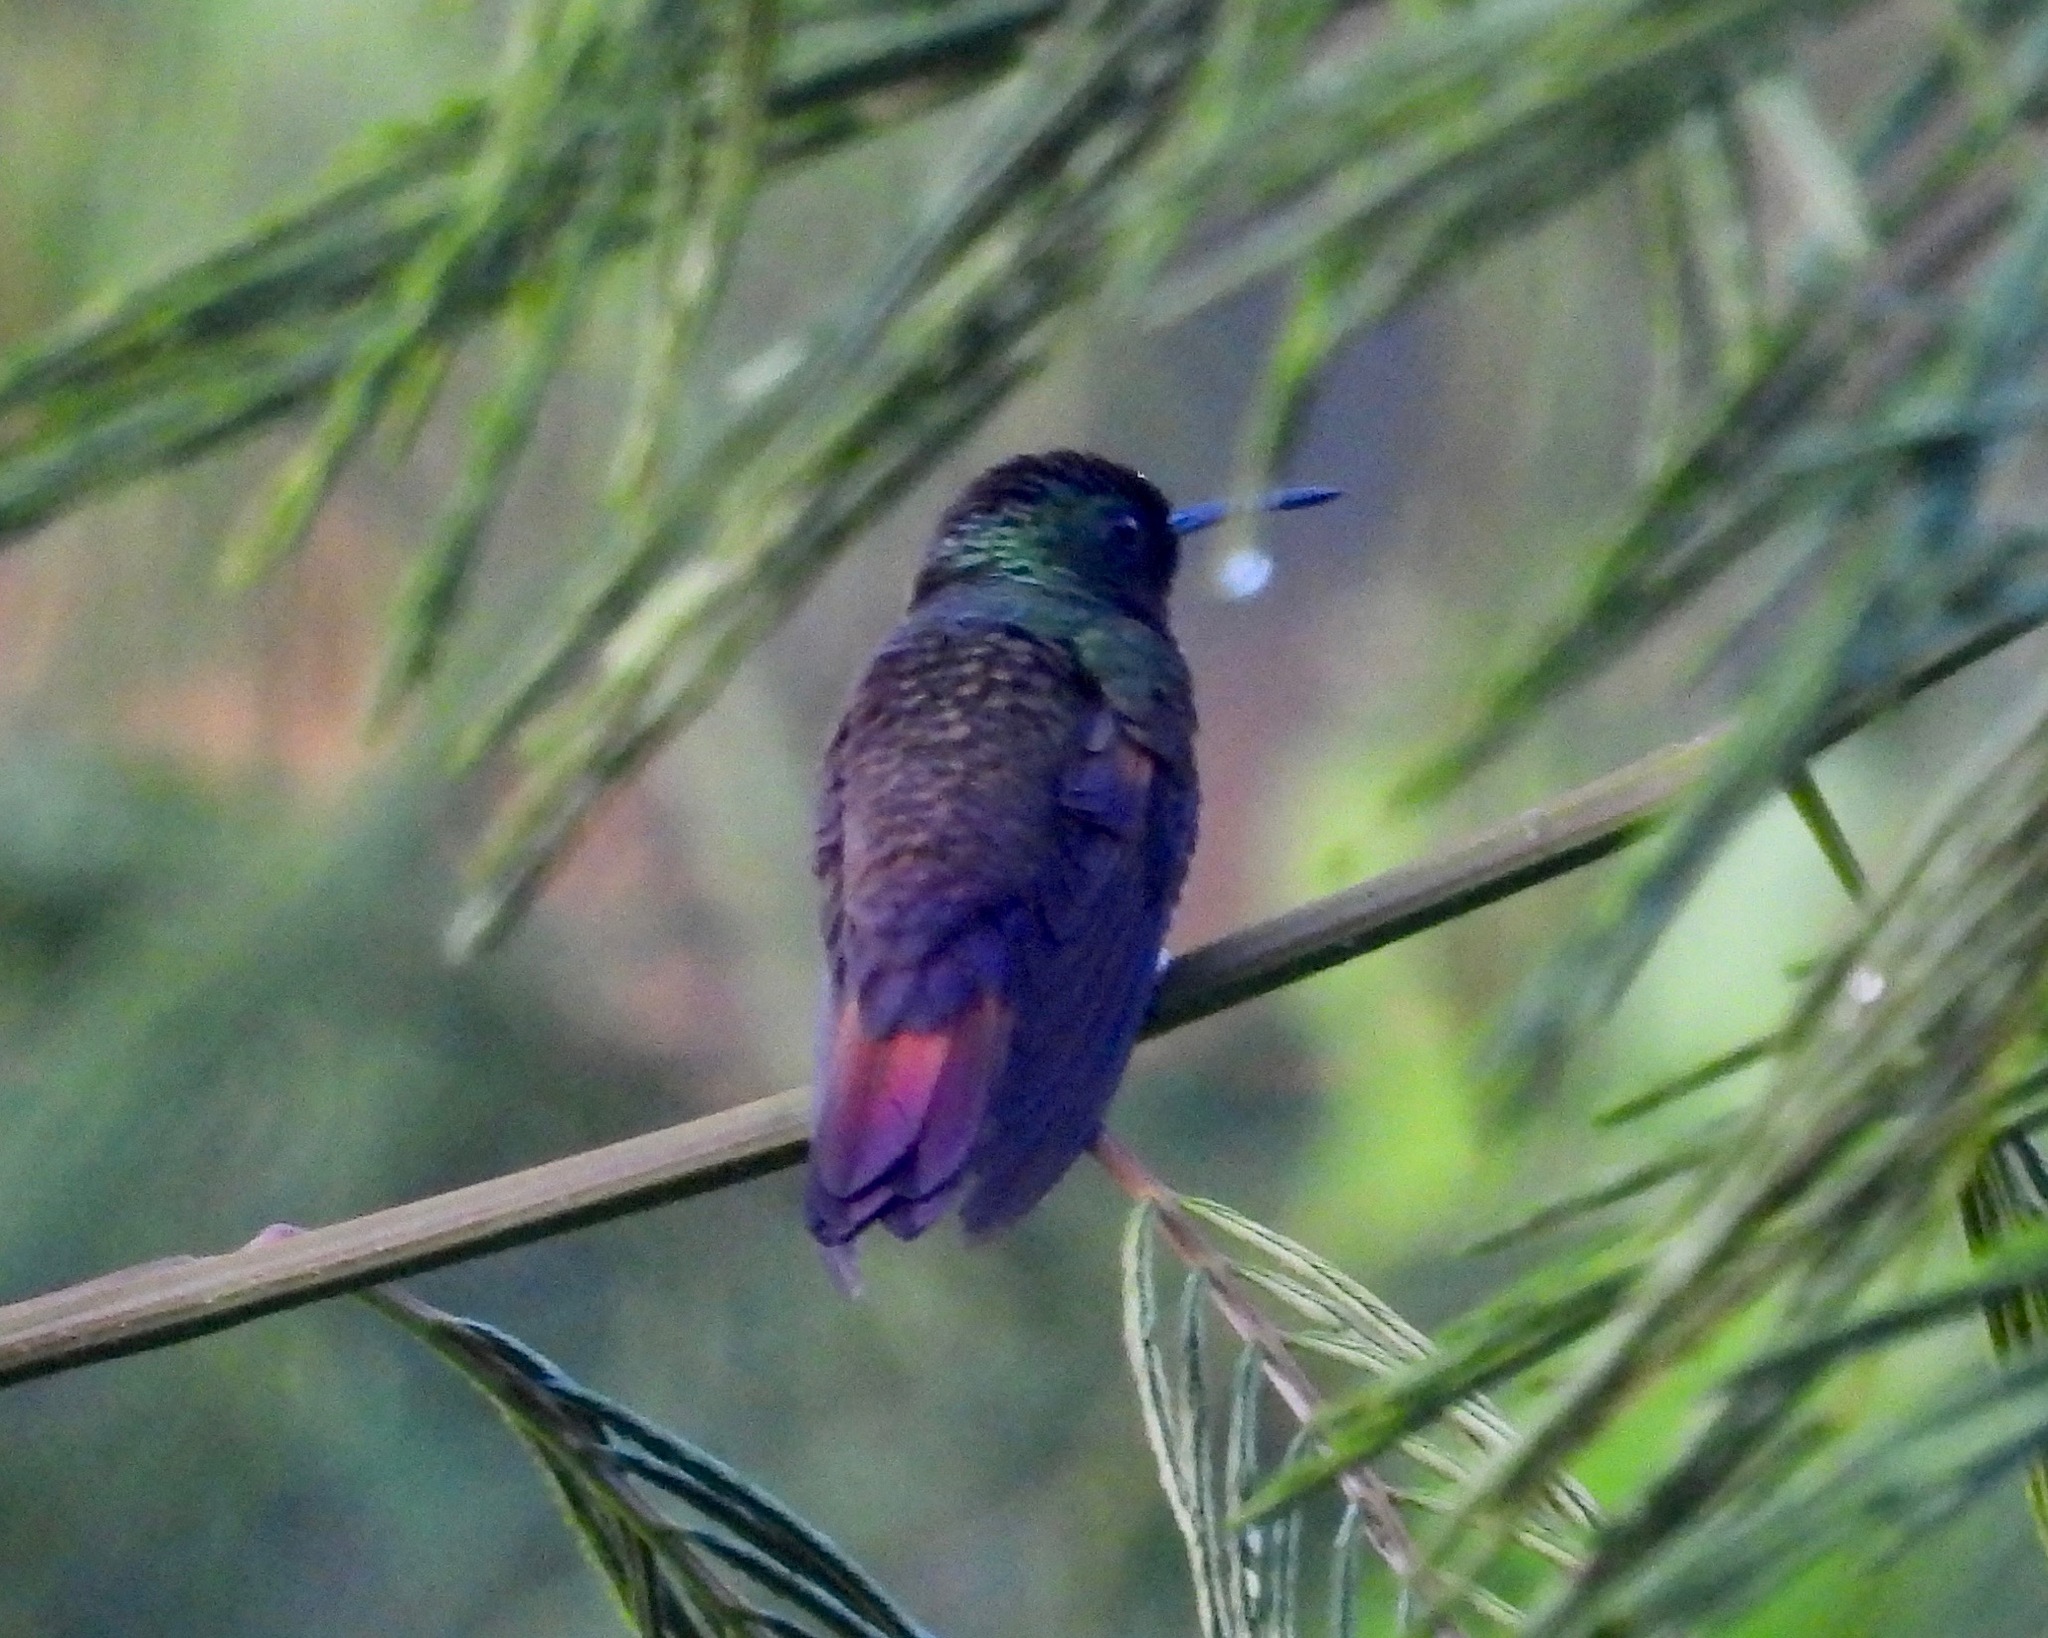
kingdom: Animalia
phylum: Chordata
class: Aves
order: Apodiformes
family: Trochilidae
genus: Saucerottia
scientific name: Saucerottia beryllina
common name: Berylline hummingbird
